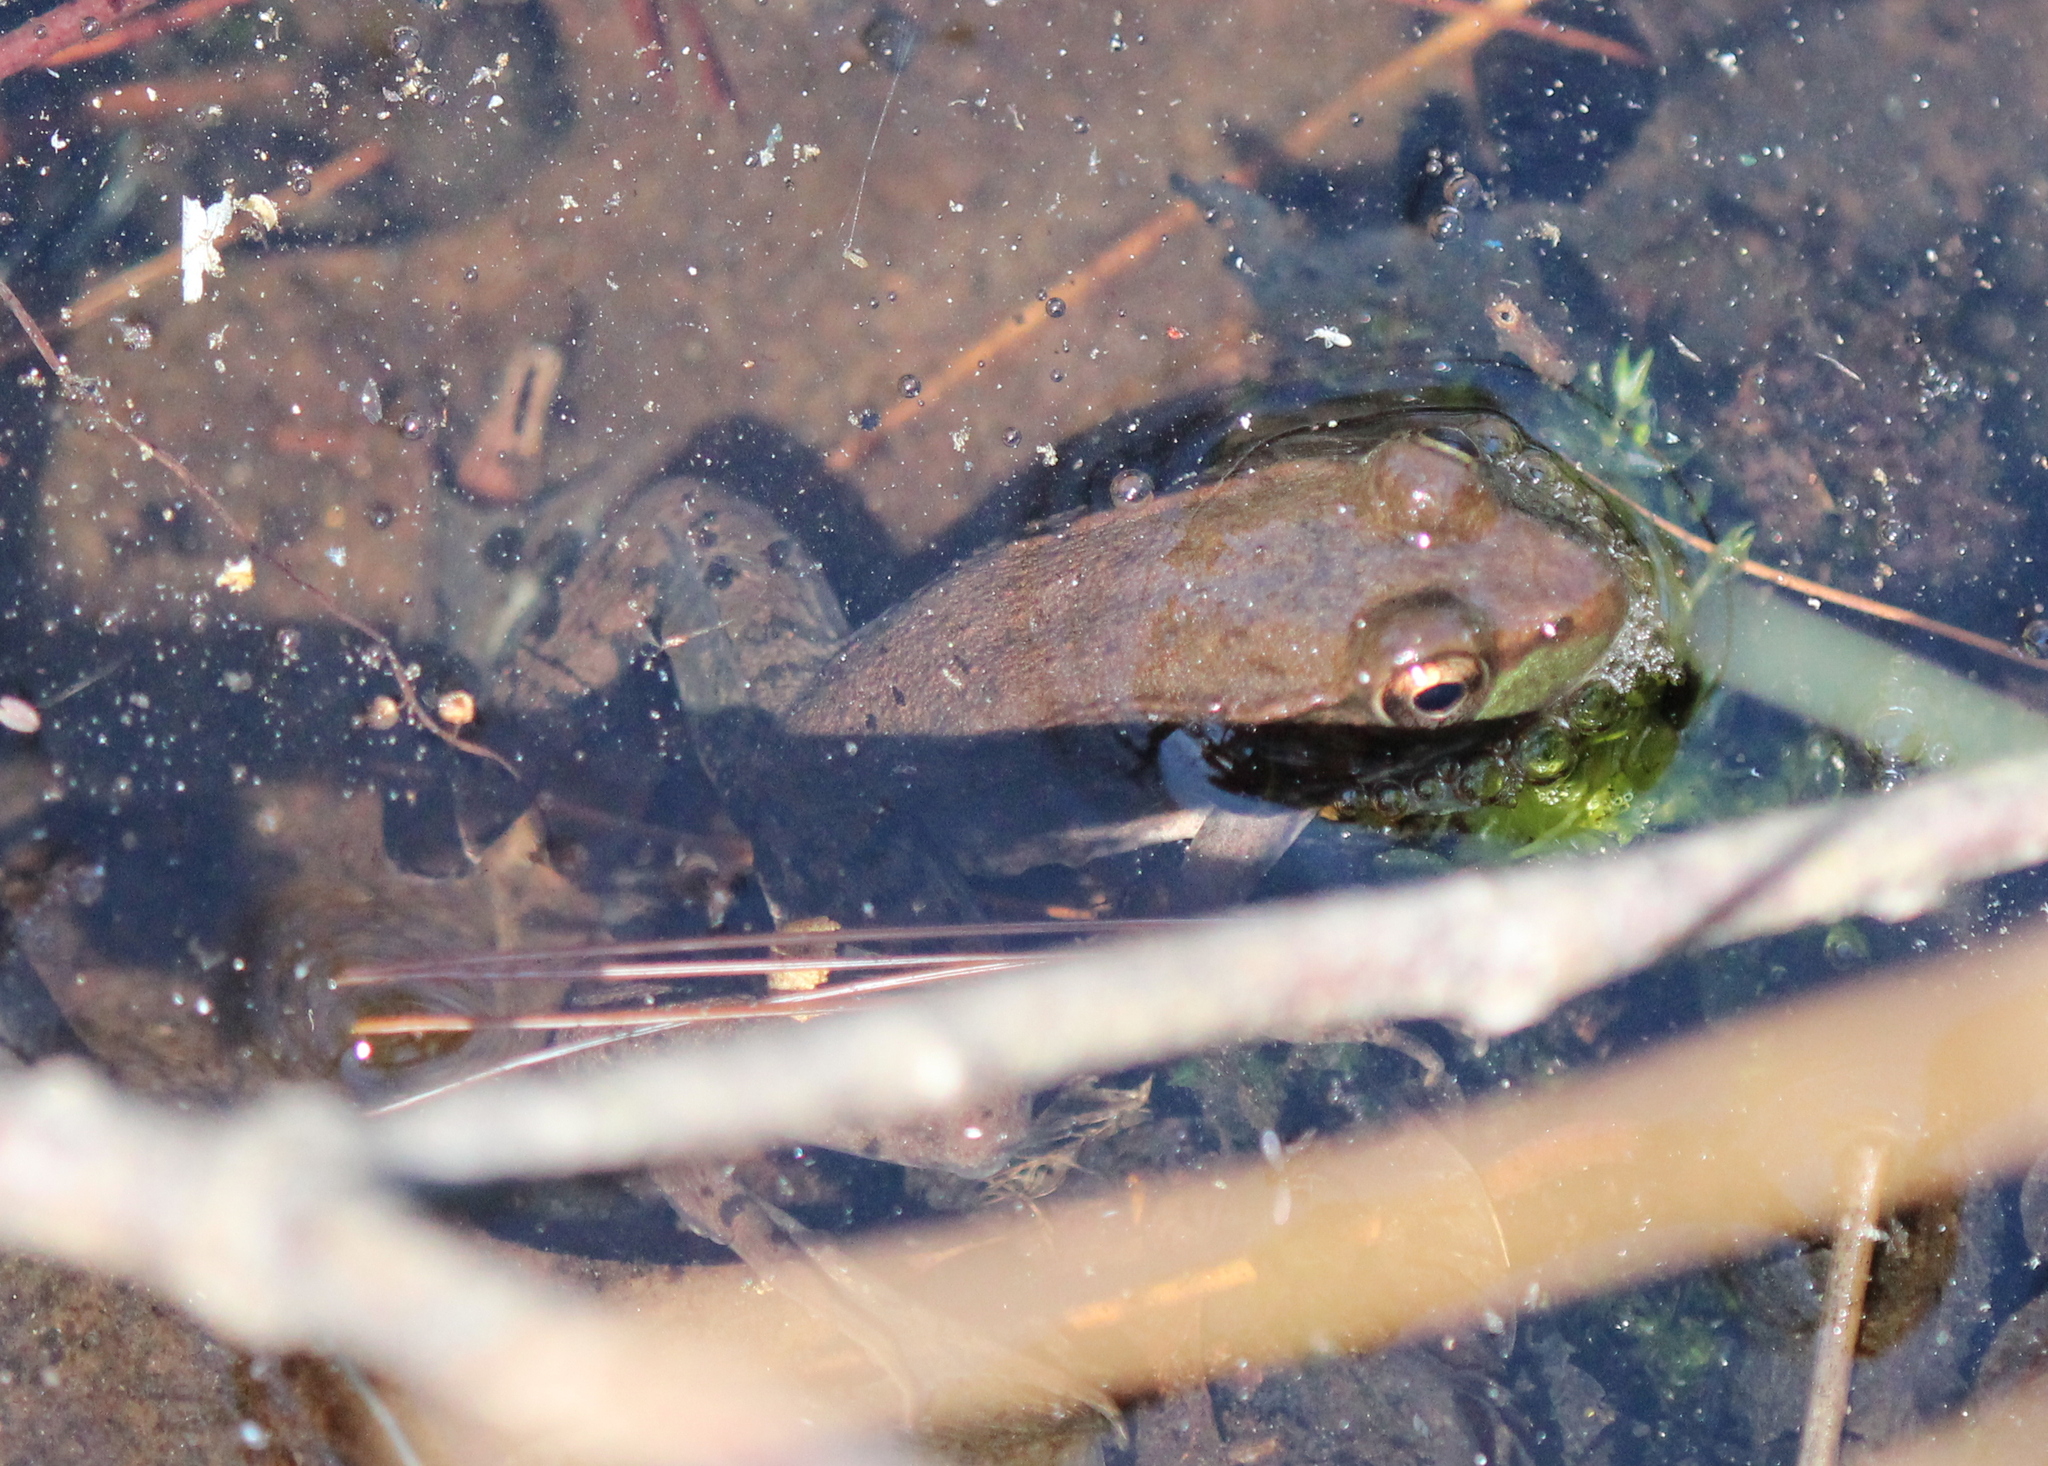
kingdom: Animalia
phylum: Chordata
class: Amphibia
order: Anura
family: Ranidae
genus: Lithobates
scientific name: Lithobates clamitans
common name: Green frog
